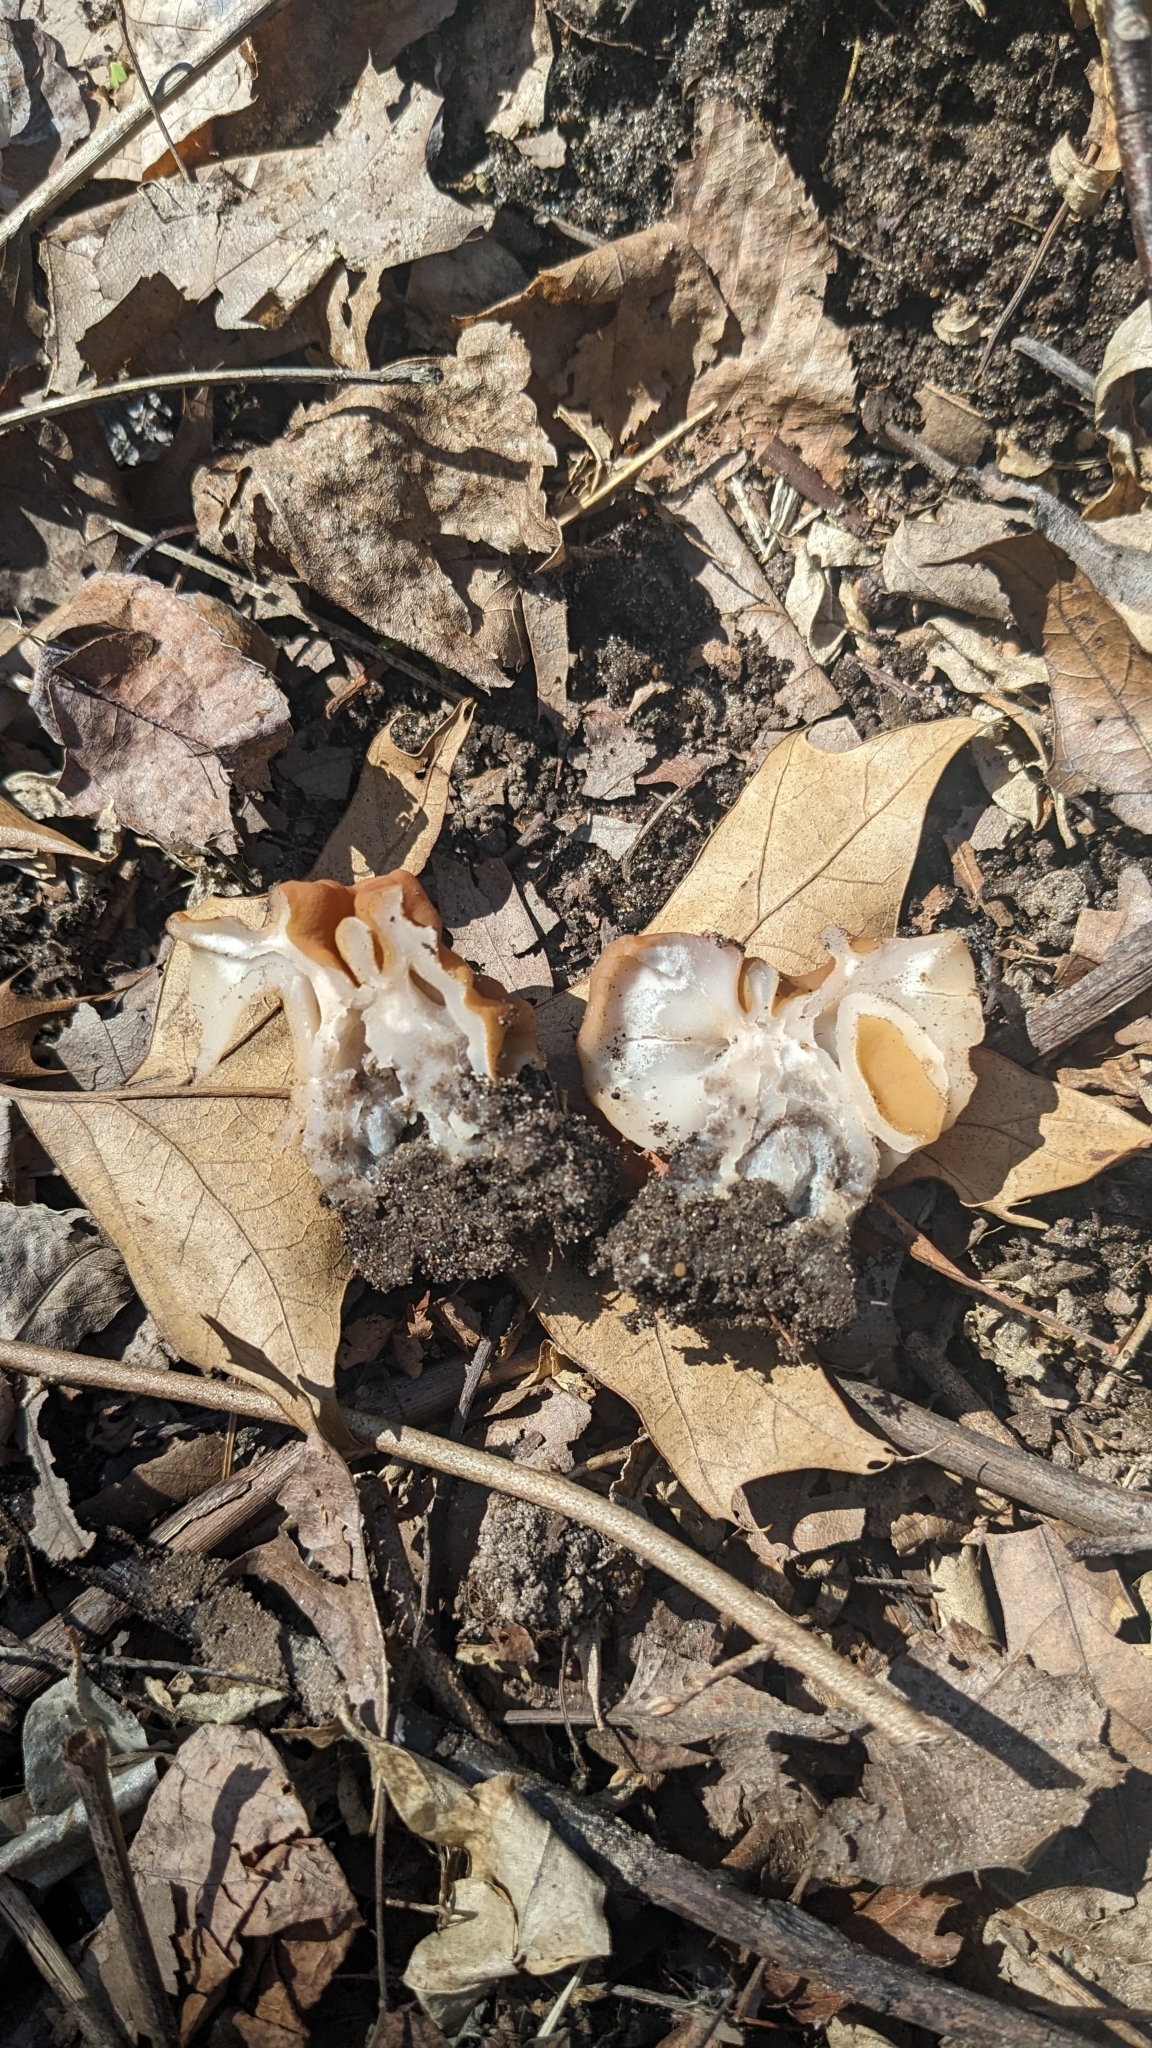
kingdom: Fungi
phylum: Ascomycota
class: Pezizomycetes
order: Pezizales
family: Discinaceae
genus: Gyromitra
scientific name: Gyromitra korfii
